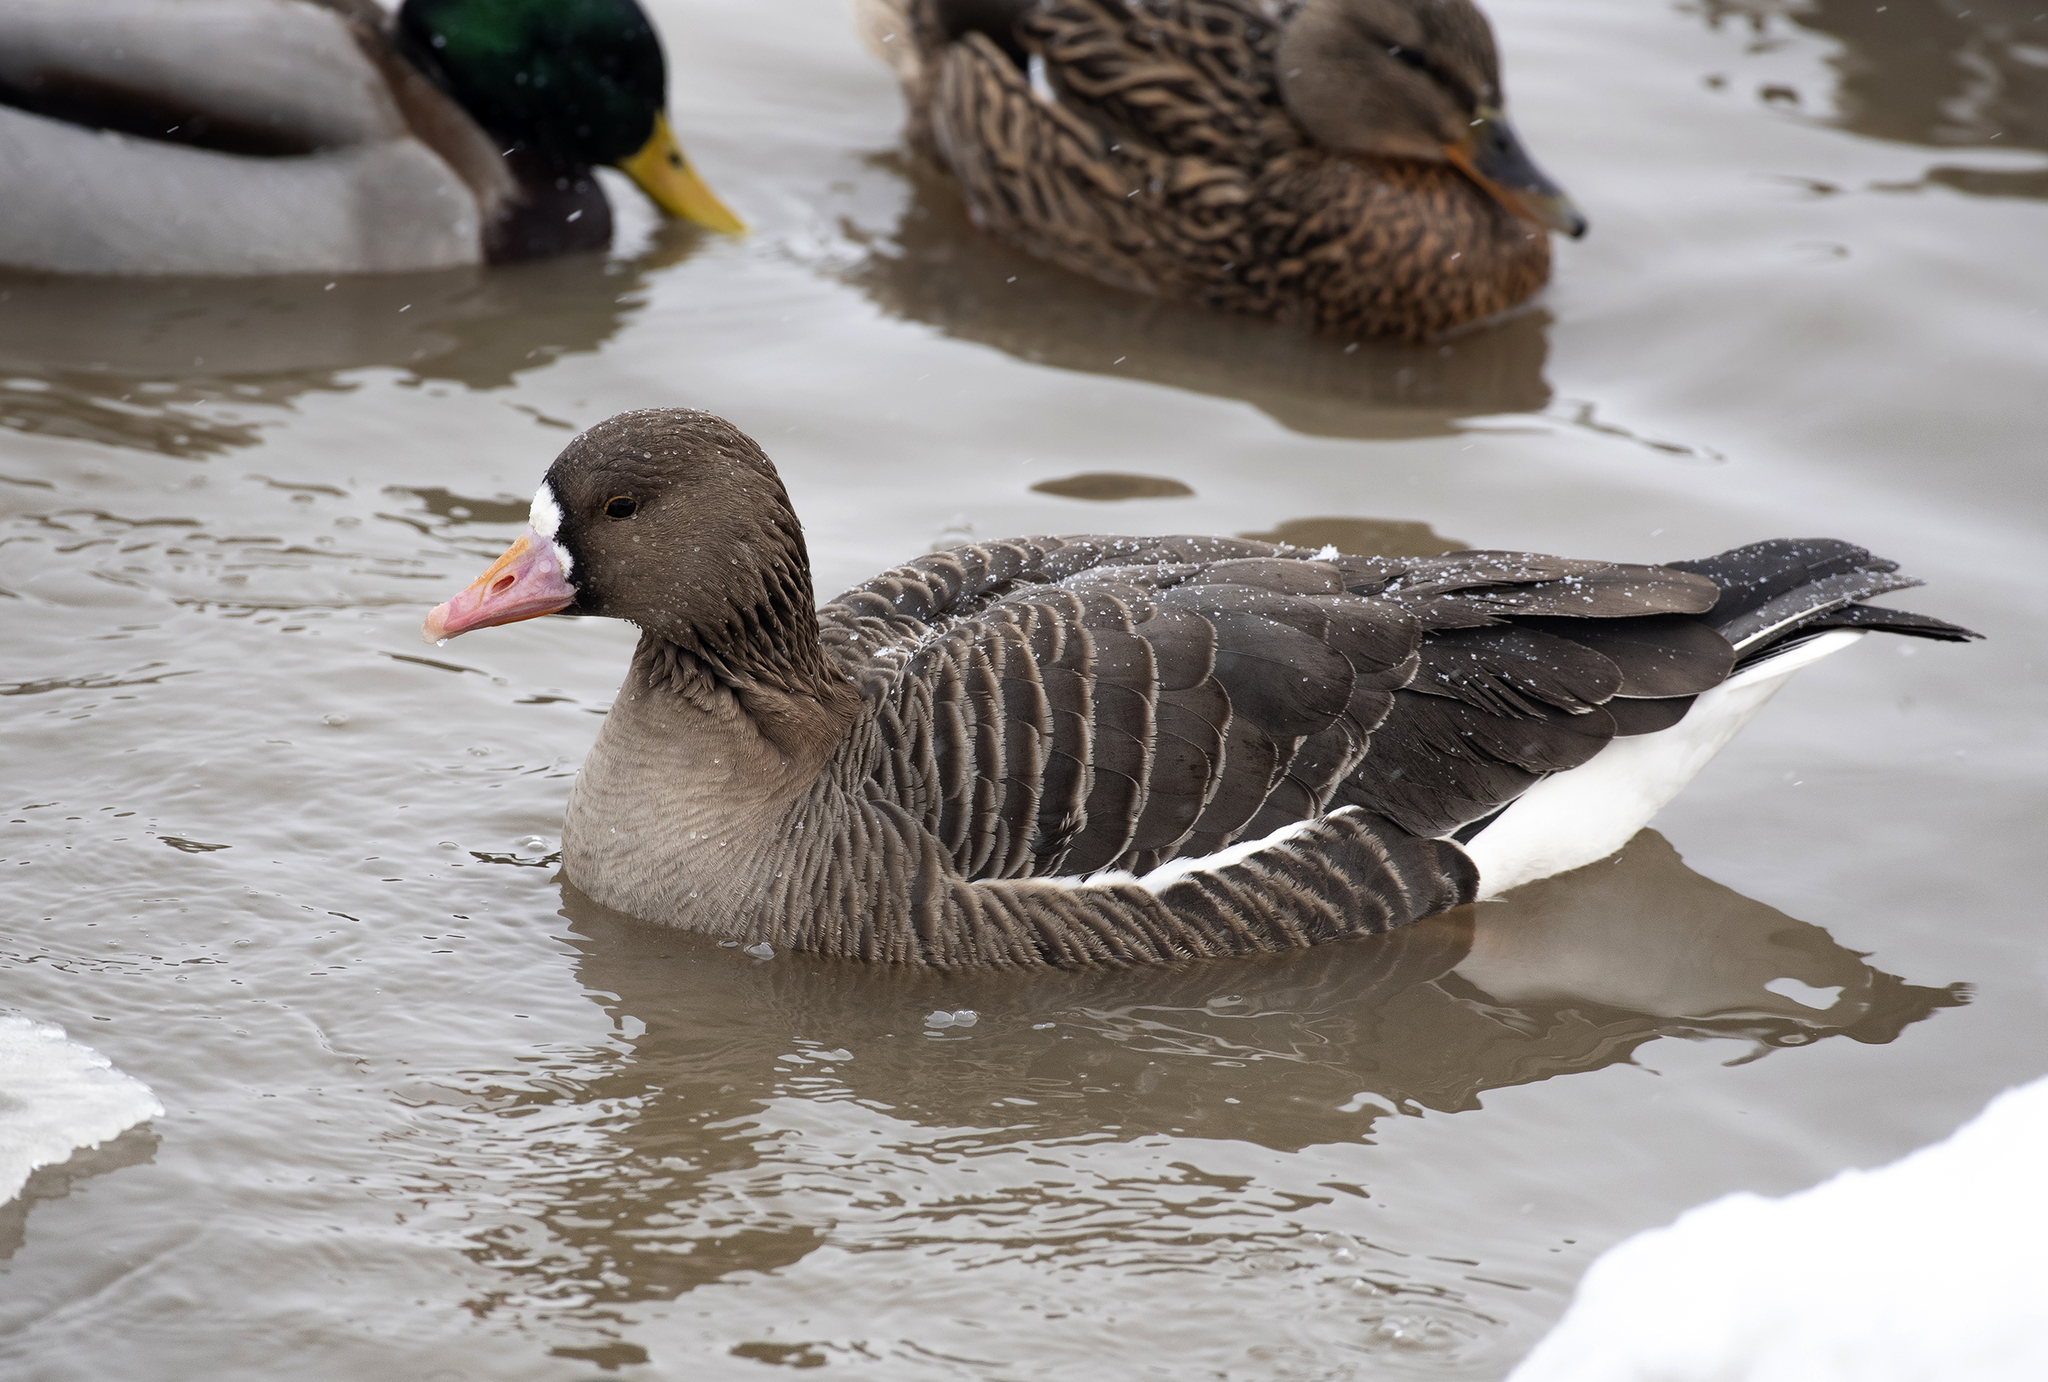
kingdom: Animalia
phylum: Chordata
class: Aves
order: Anseriformes
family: Anatidae
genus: Anser
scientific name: Anser albifrons
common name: Greater white-fronted goose
